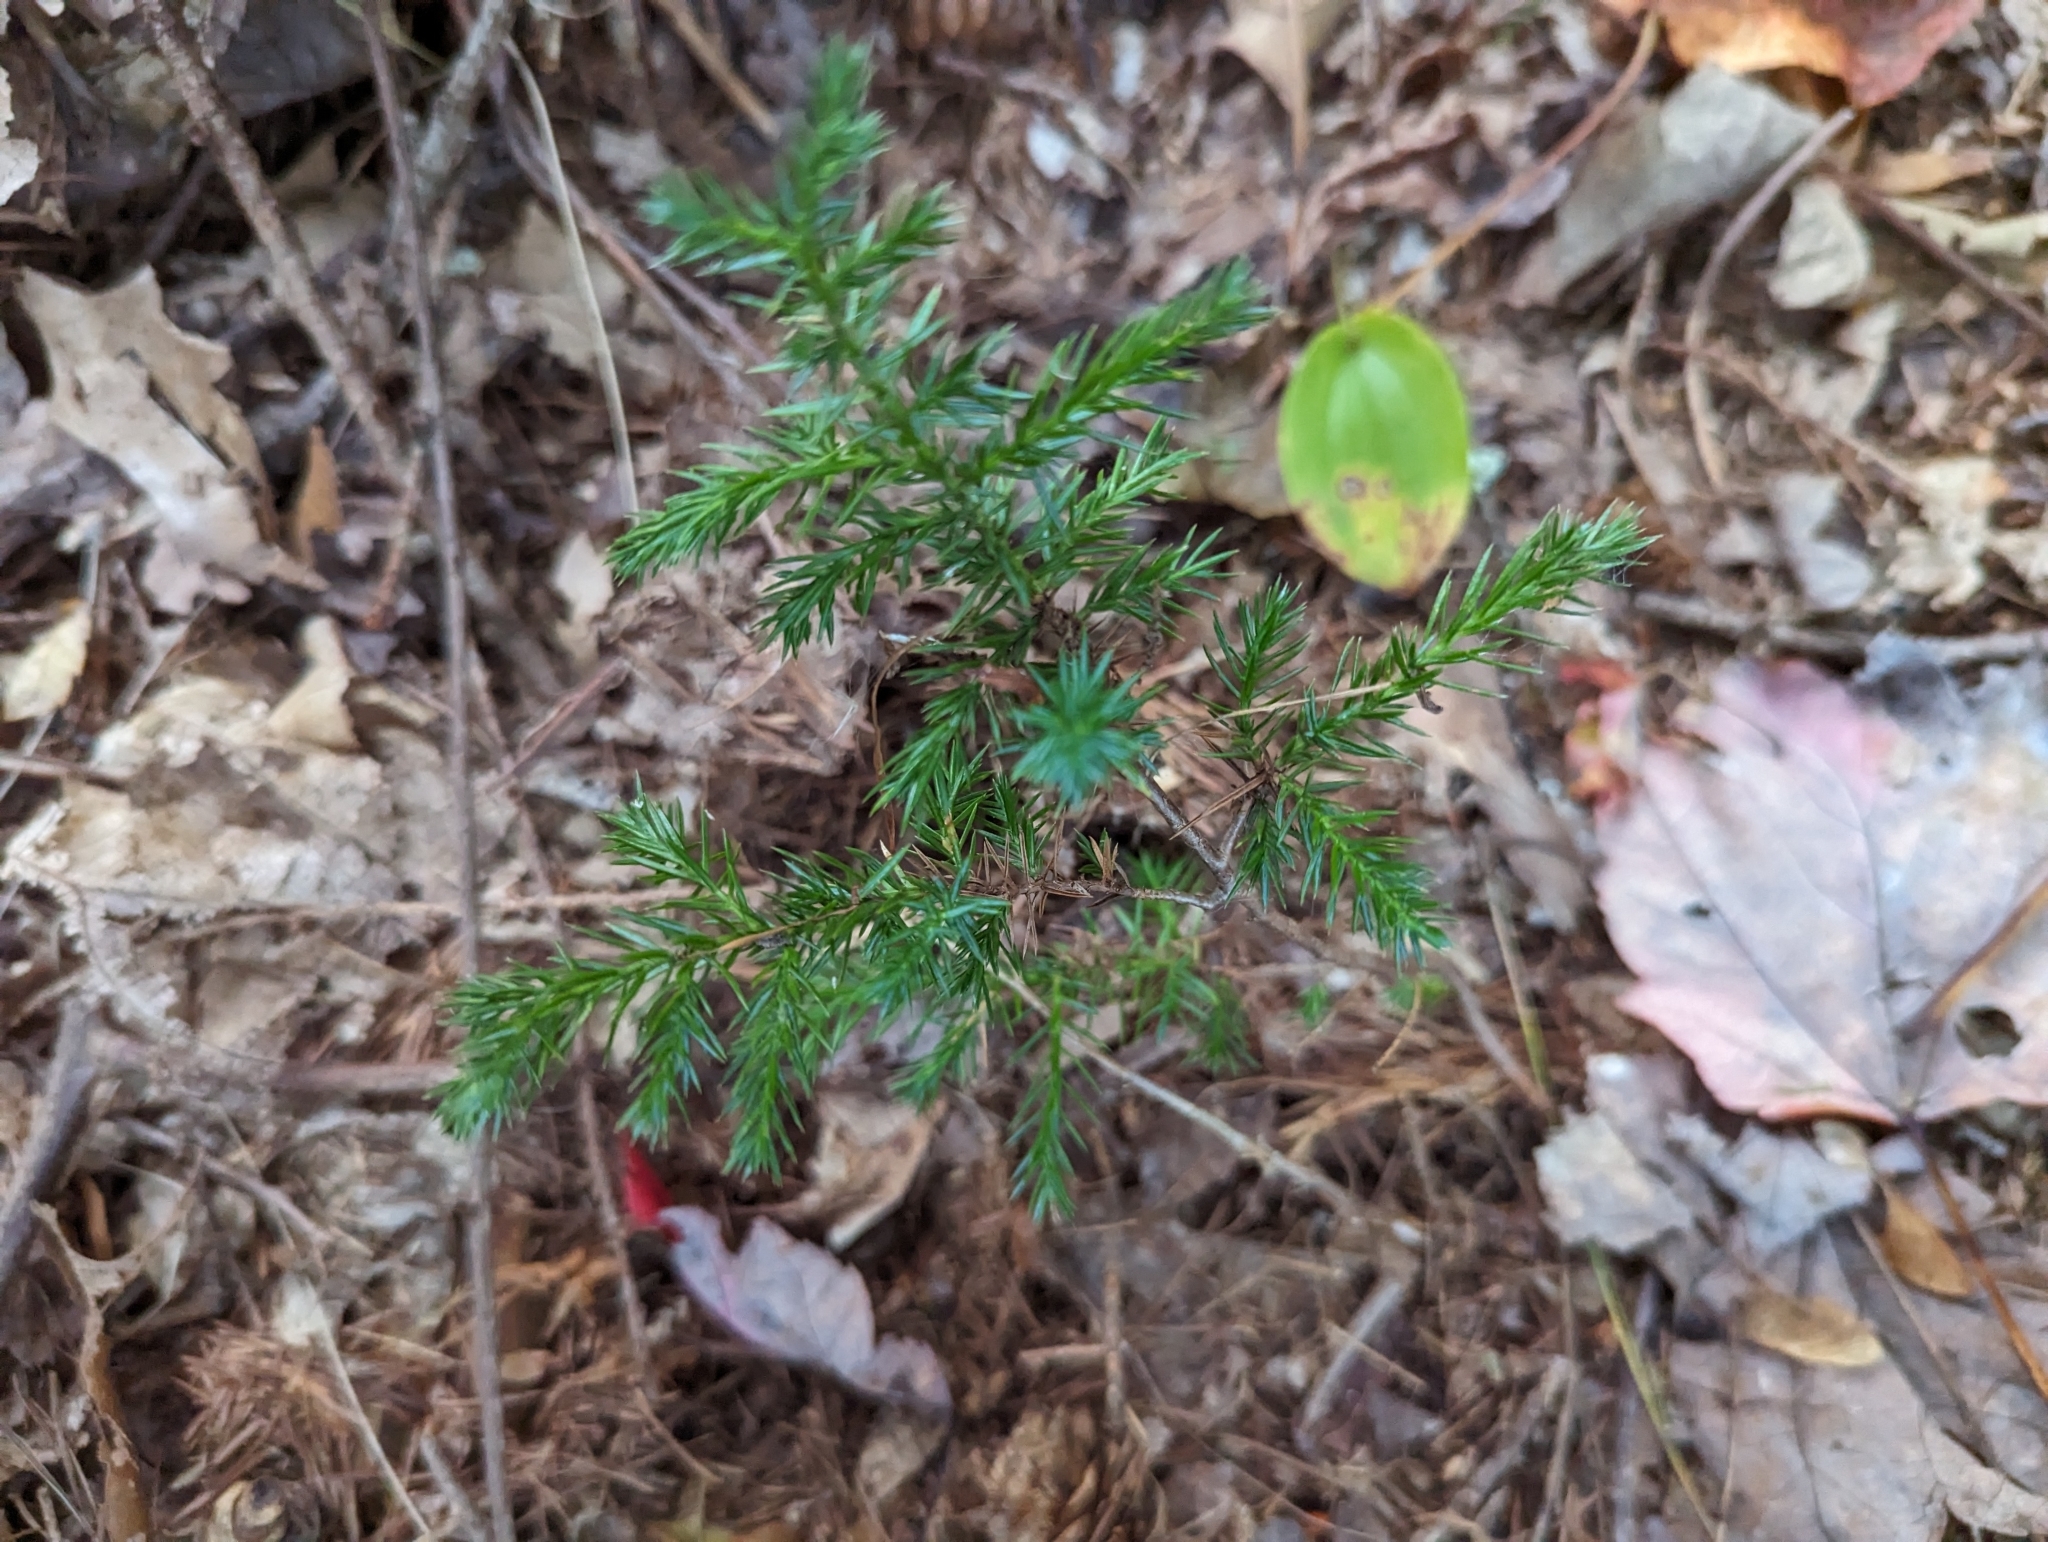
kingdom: Plantae
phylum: Tracheophyta
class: Pinopsida
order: Pinales
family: Cupressaceae
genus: Juniperus
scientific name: Juniperus communis
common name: Common juniper
